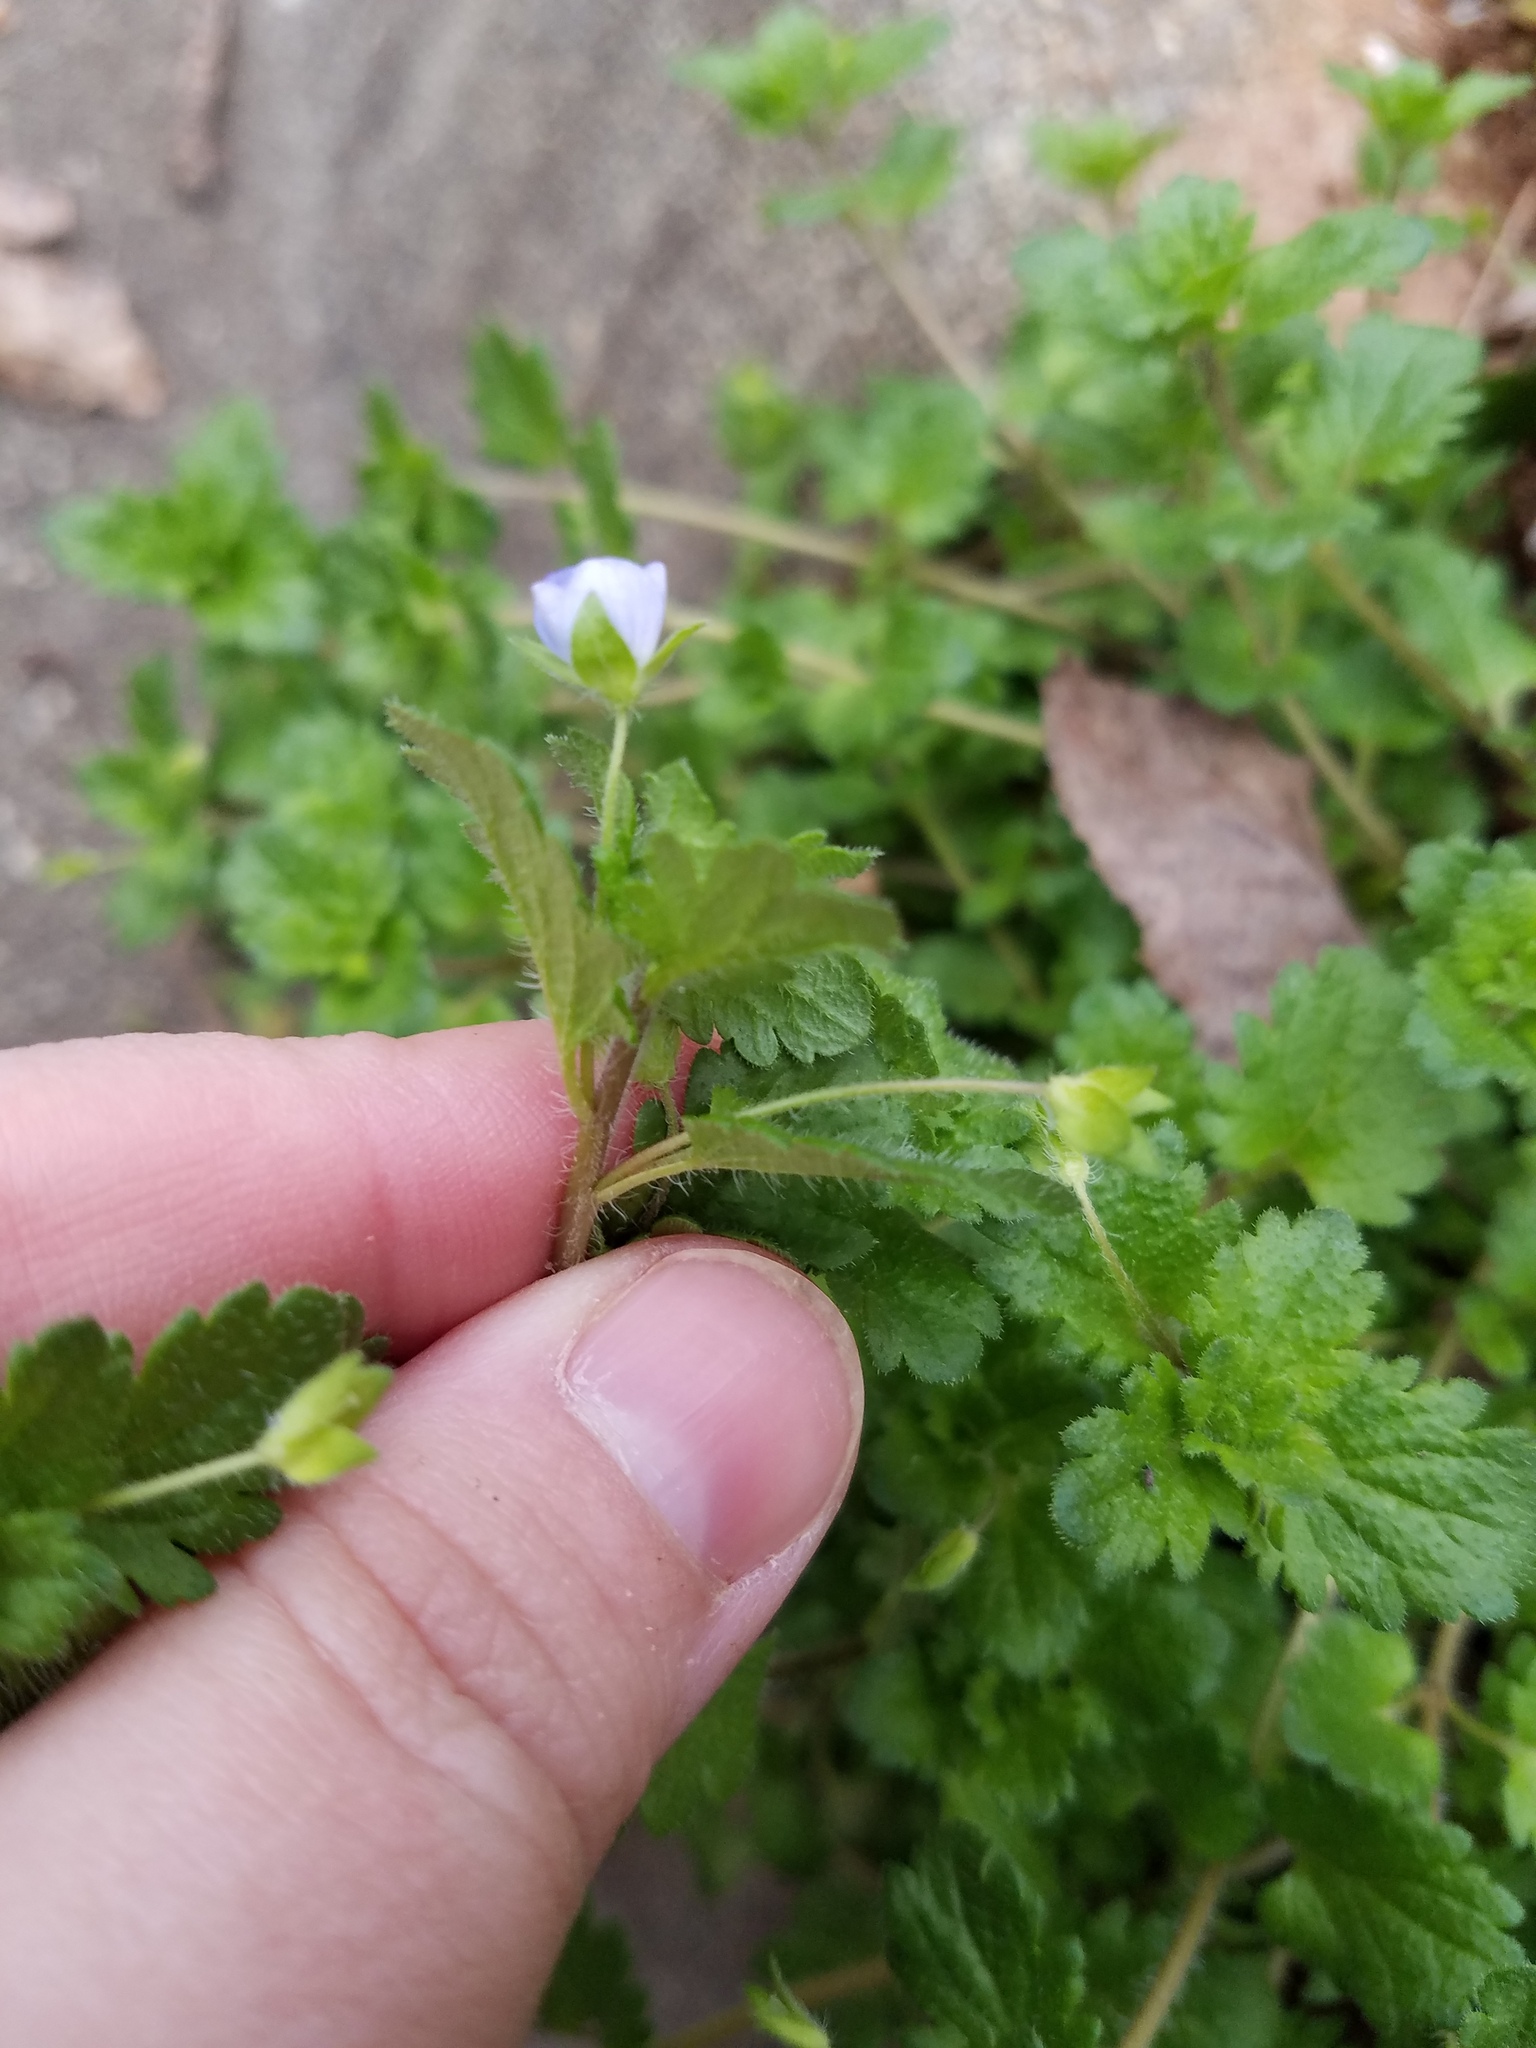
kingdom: Plantae
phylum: Tracheophyta
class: Magnoliopsida
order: Lamiales
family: Plantaginaceae
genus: Veronica
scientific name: Veronica persica
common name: Common field-speedwell
